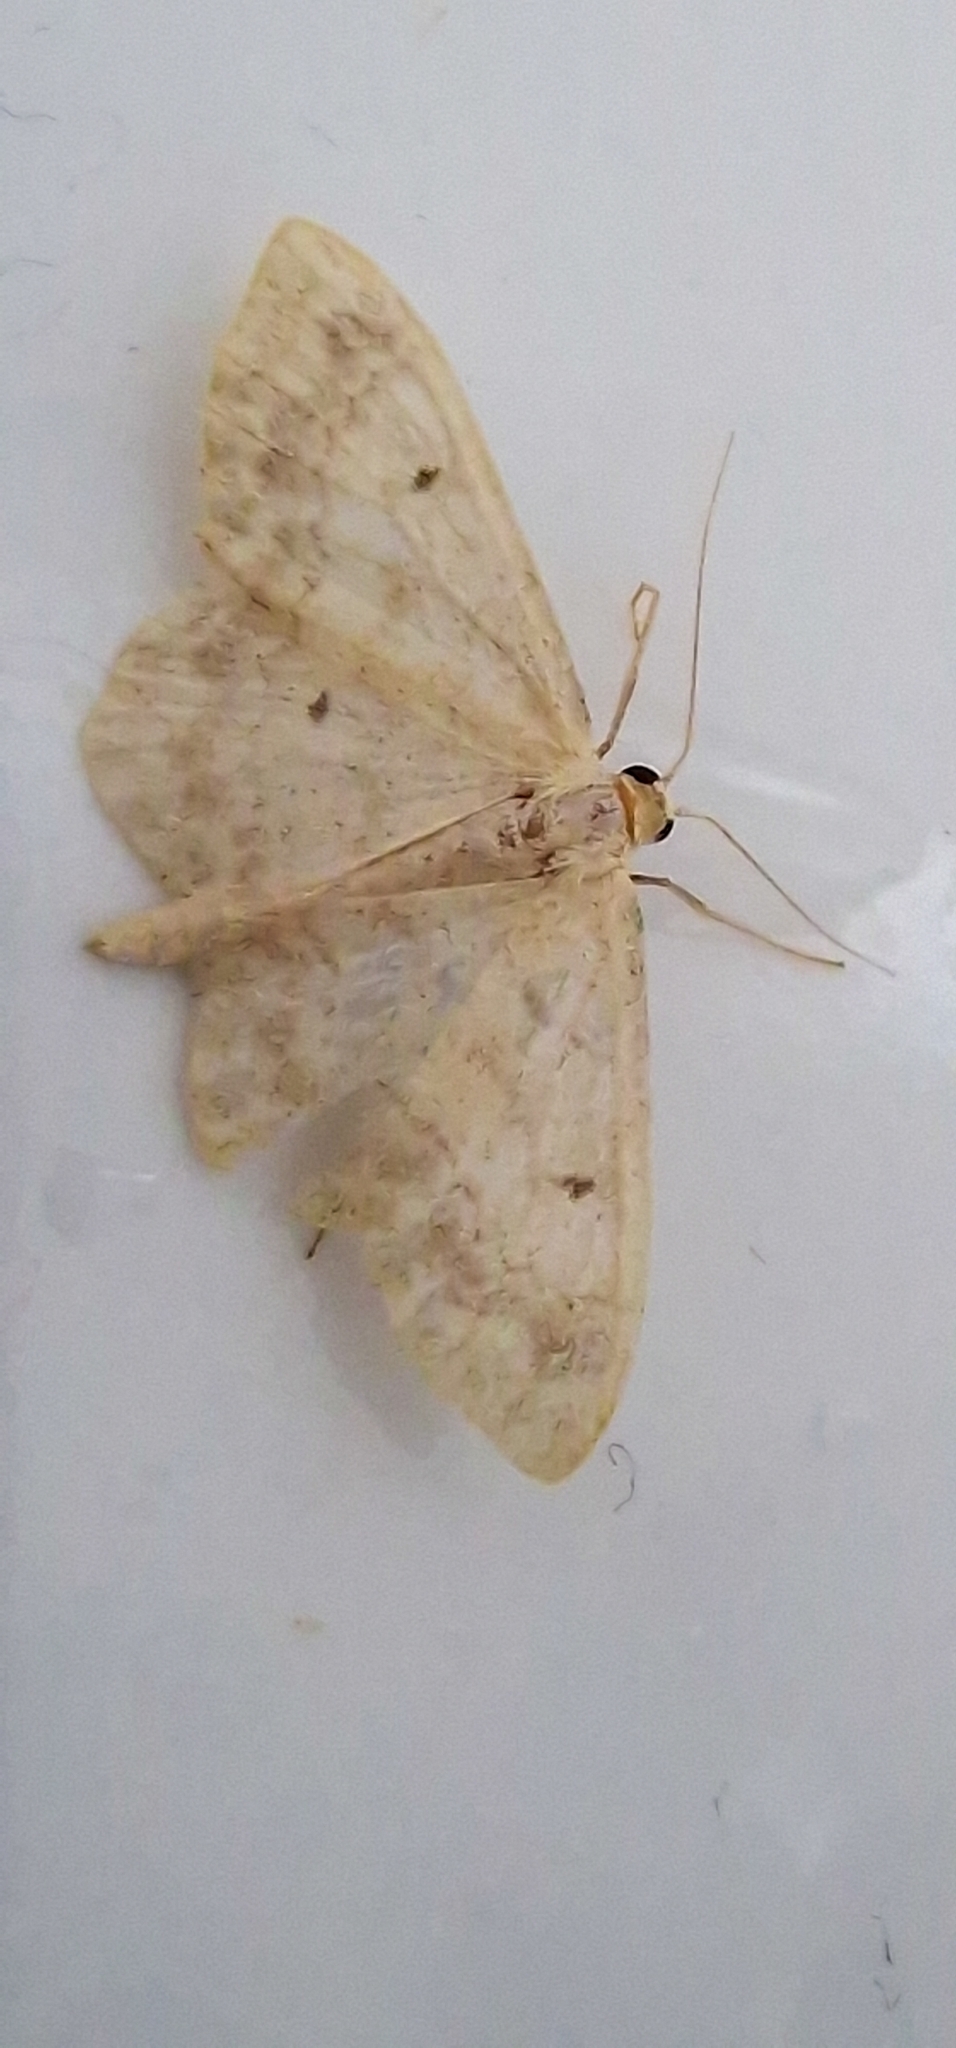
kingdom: Animalia
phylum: Arthropoda
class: Insecta
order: Lepidoptera
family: Geometridae
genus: Idaea
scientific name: Idaea biselata
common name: Small fan-footed wave
